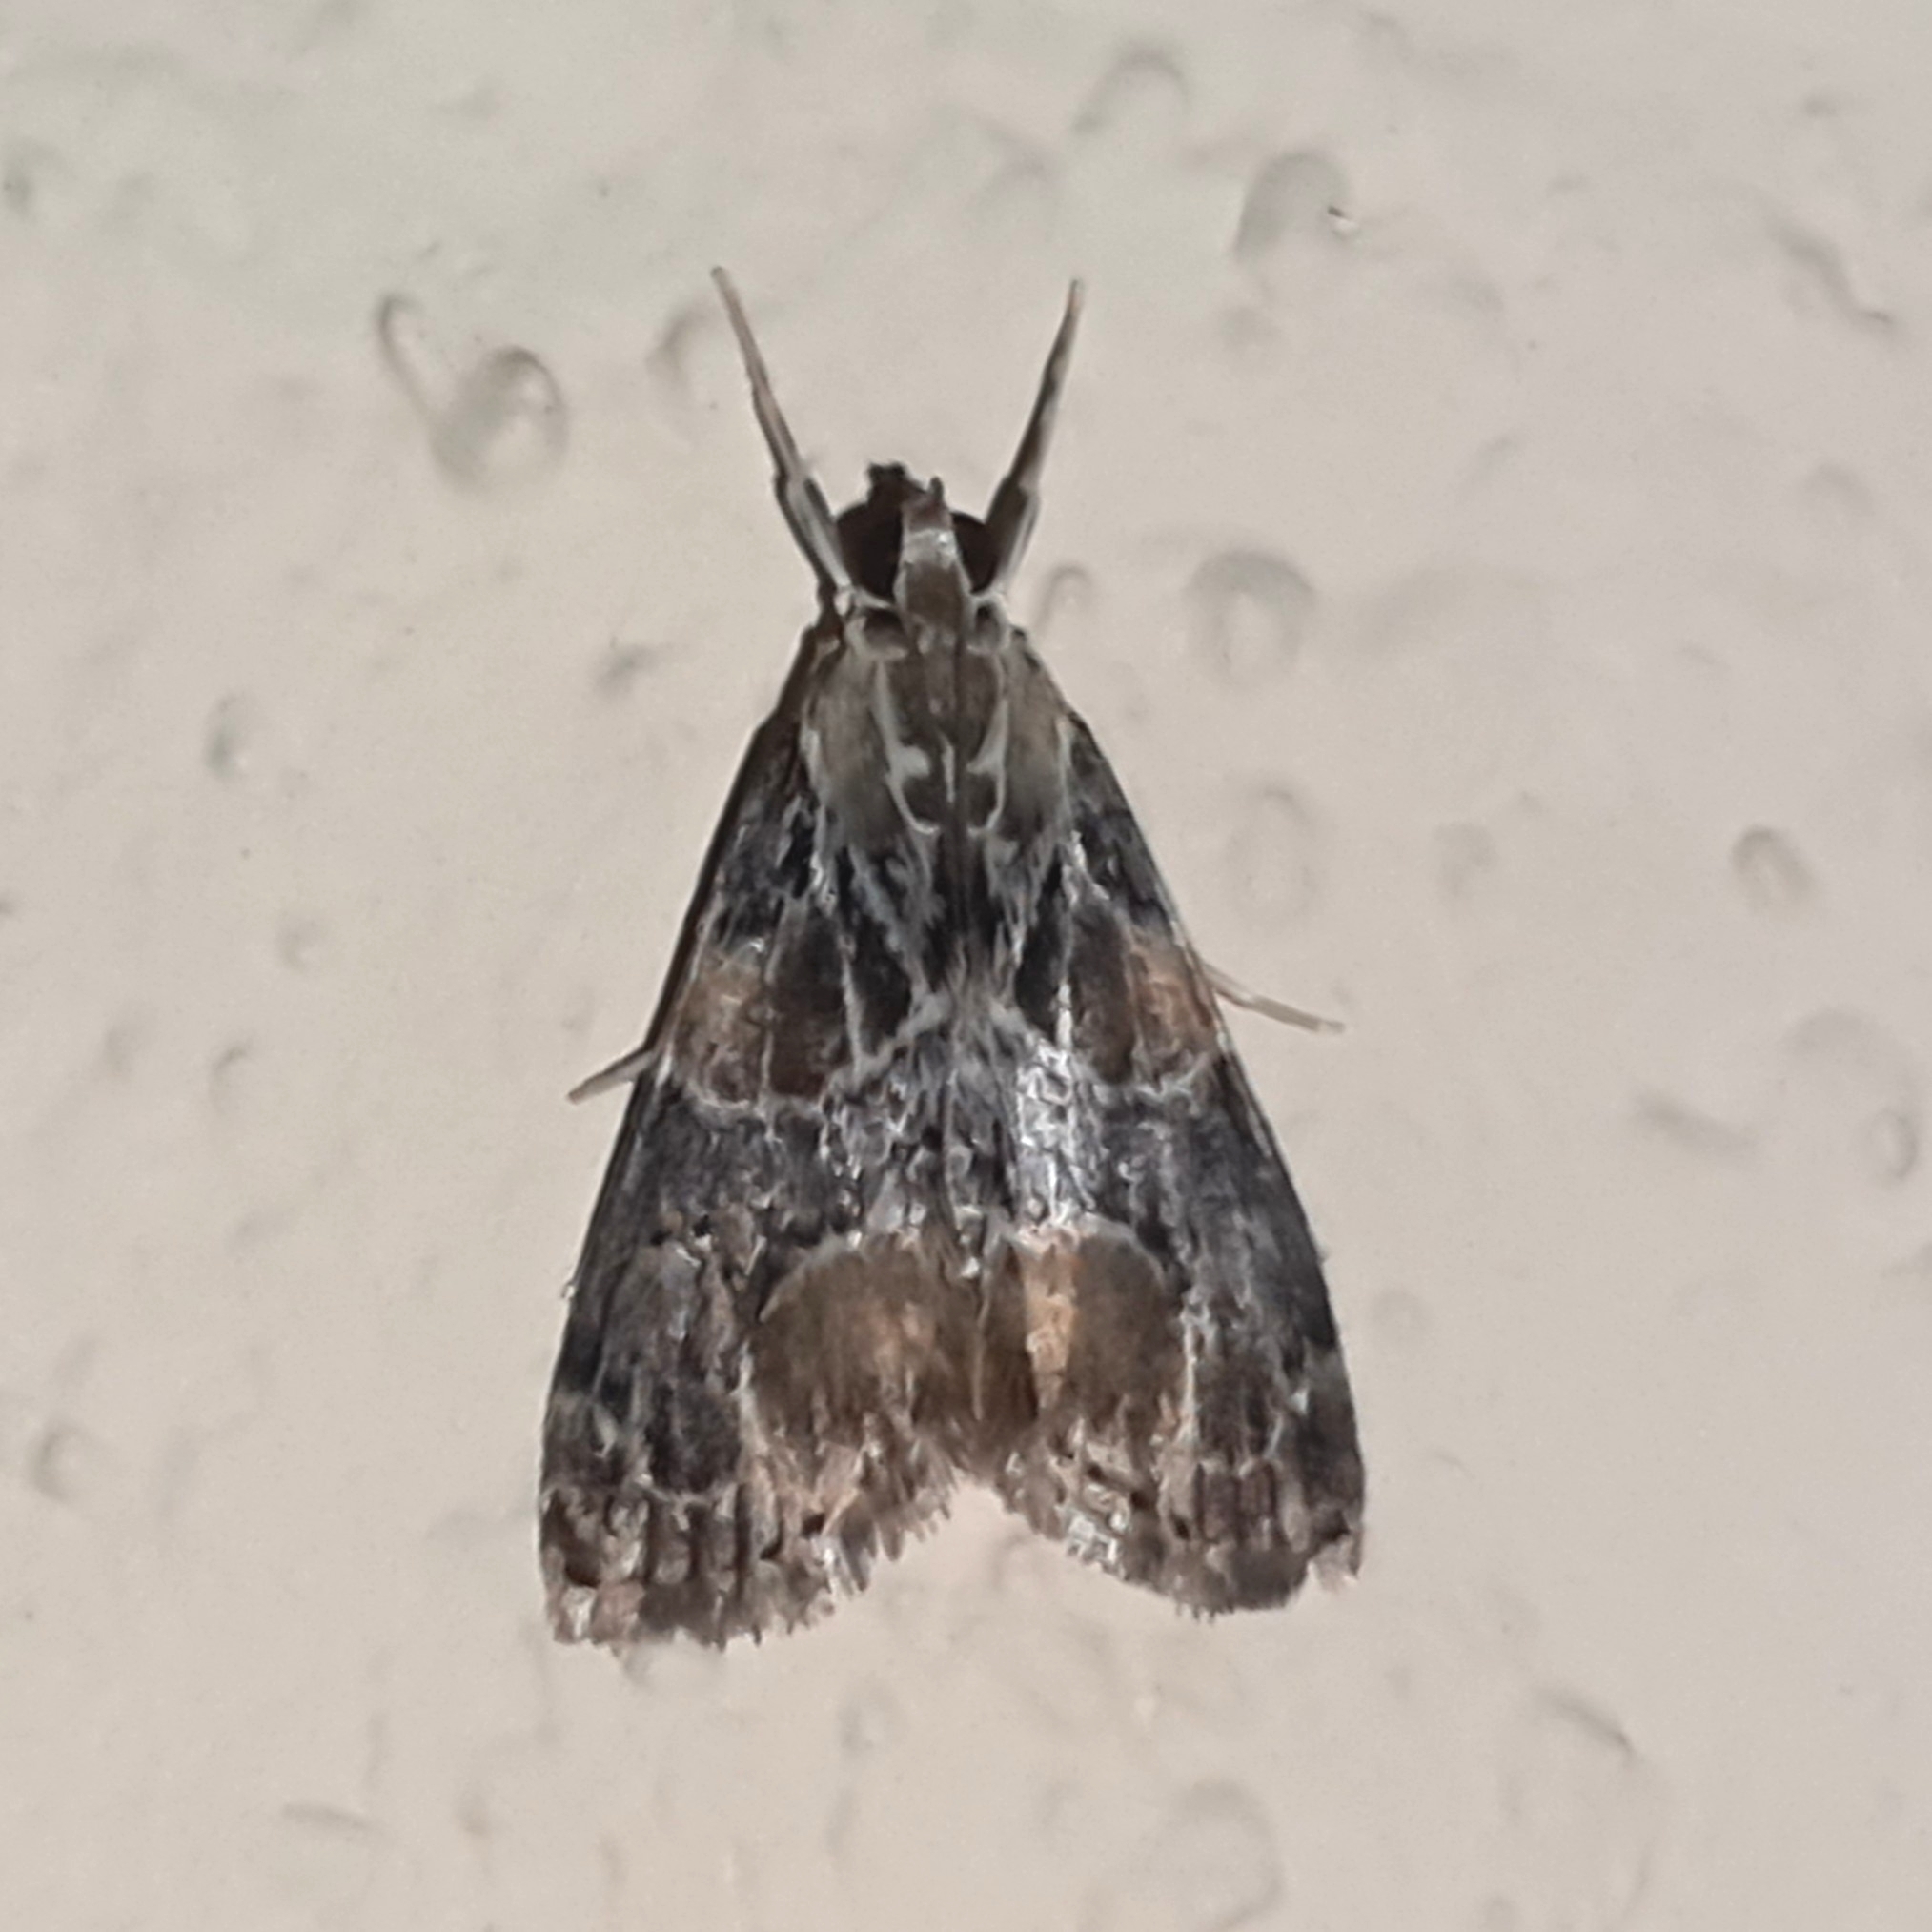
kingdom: Animalia
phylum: Arthropoda
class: Insecta
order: Lepidoptera
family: Crambidae
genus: Eupoca
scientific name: Eupoca bifascialis
